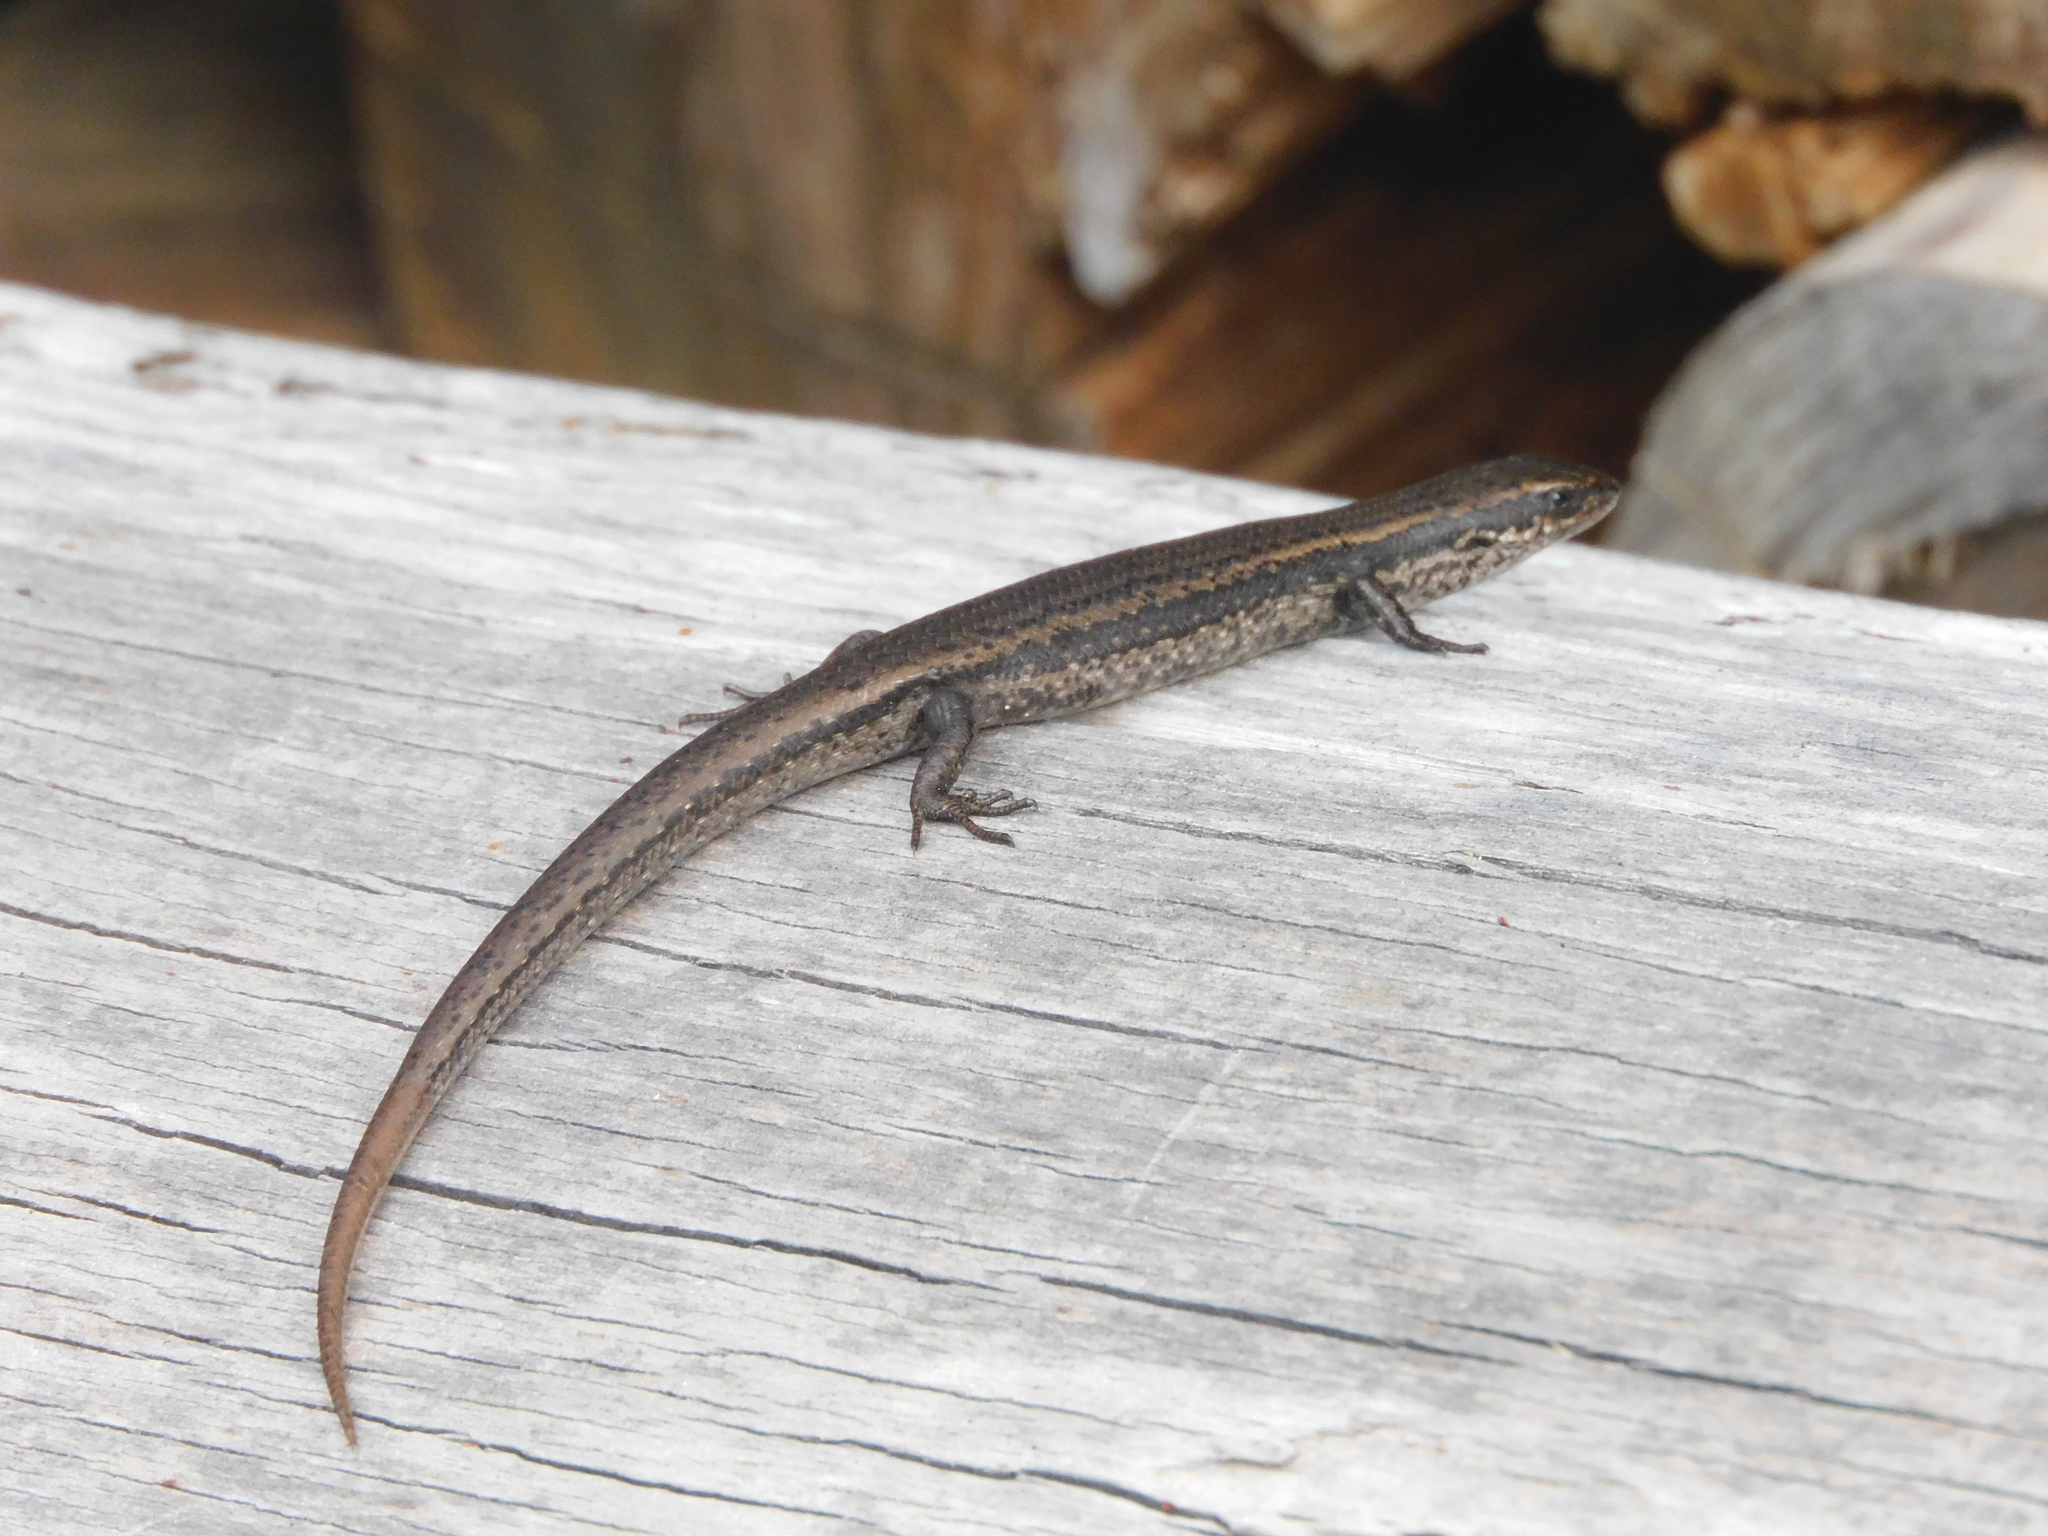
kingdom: Animalia
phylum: Chordata
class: Squamata
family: Scincidae
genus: Carinascincus
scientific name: Carinascincus metallicus
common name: Metallic cool-skink
